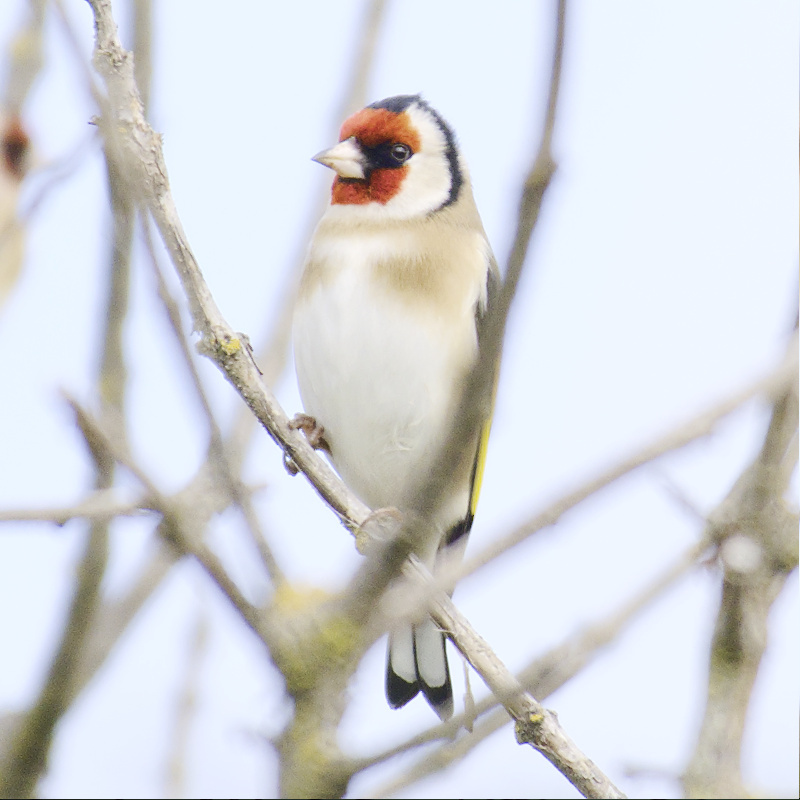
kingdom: Animalia
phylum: Chordata
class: Aves
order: Passeriformes
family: Fringillidae
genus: Carduelis
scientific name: Carduelis carduelis
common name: European goldfinch
